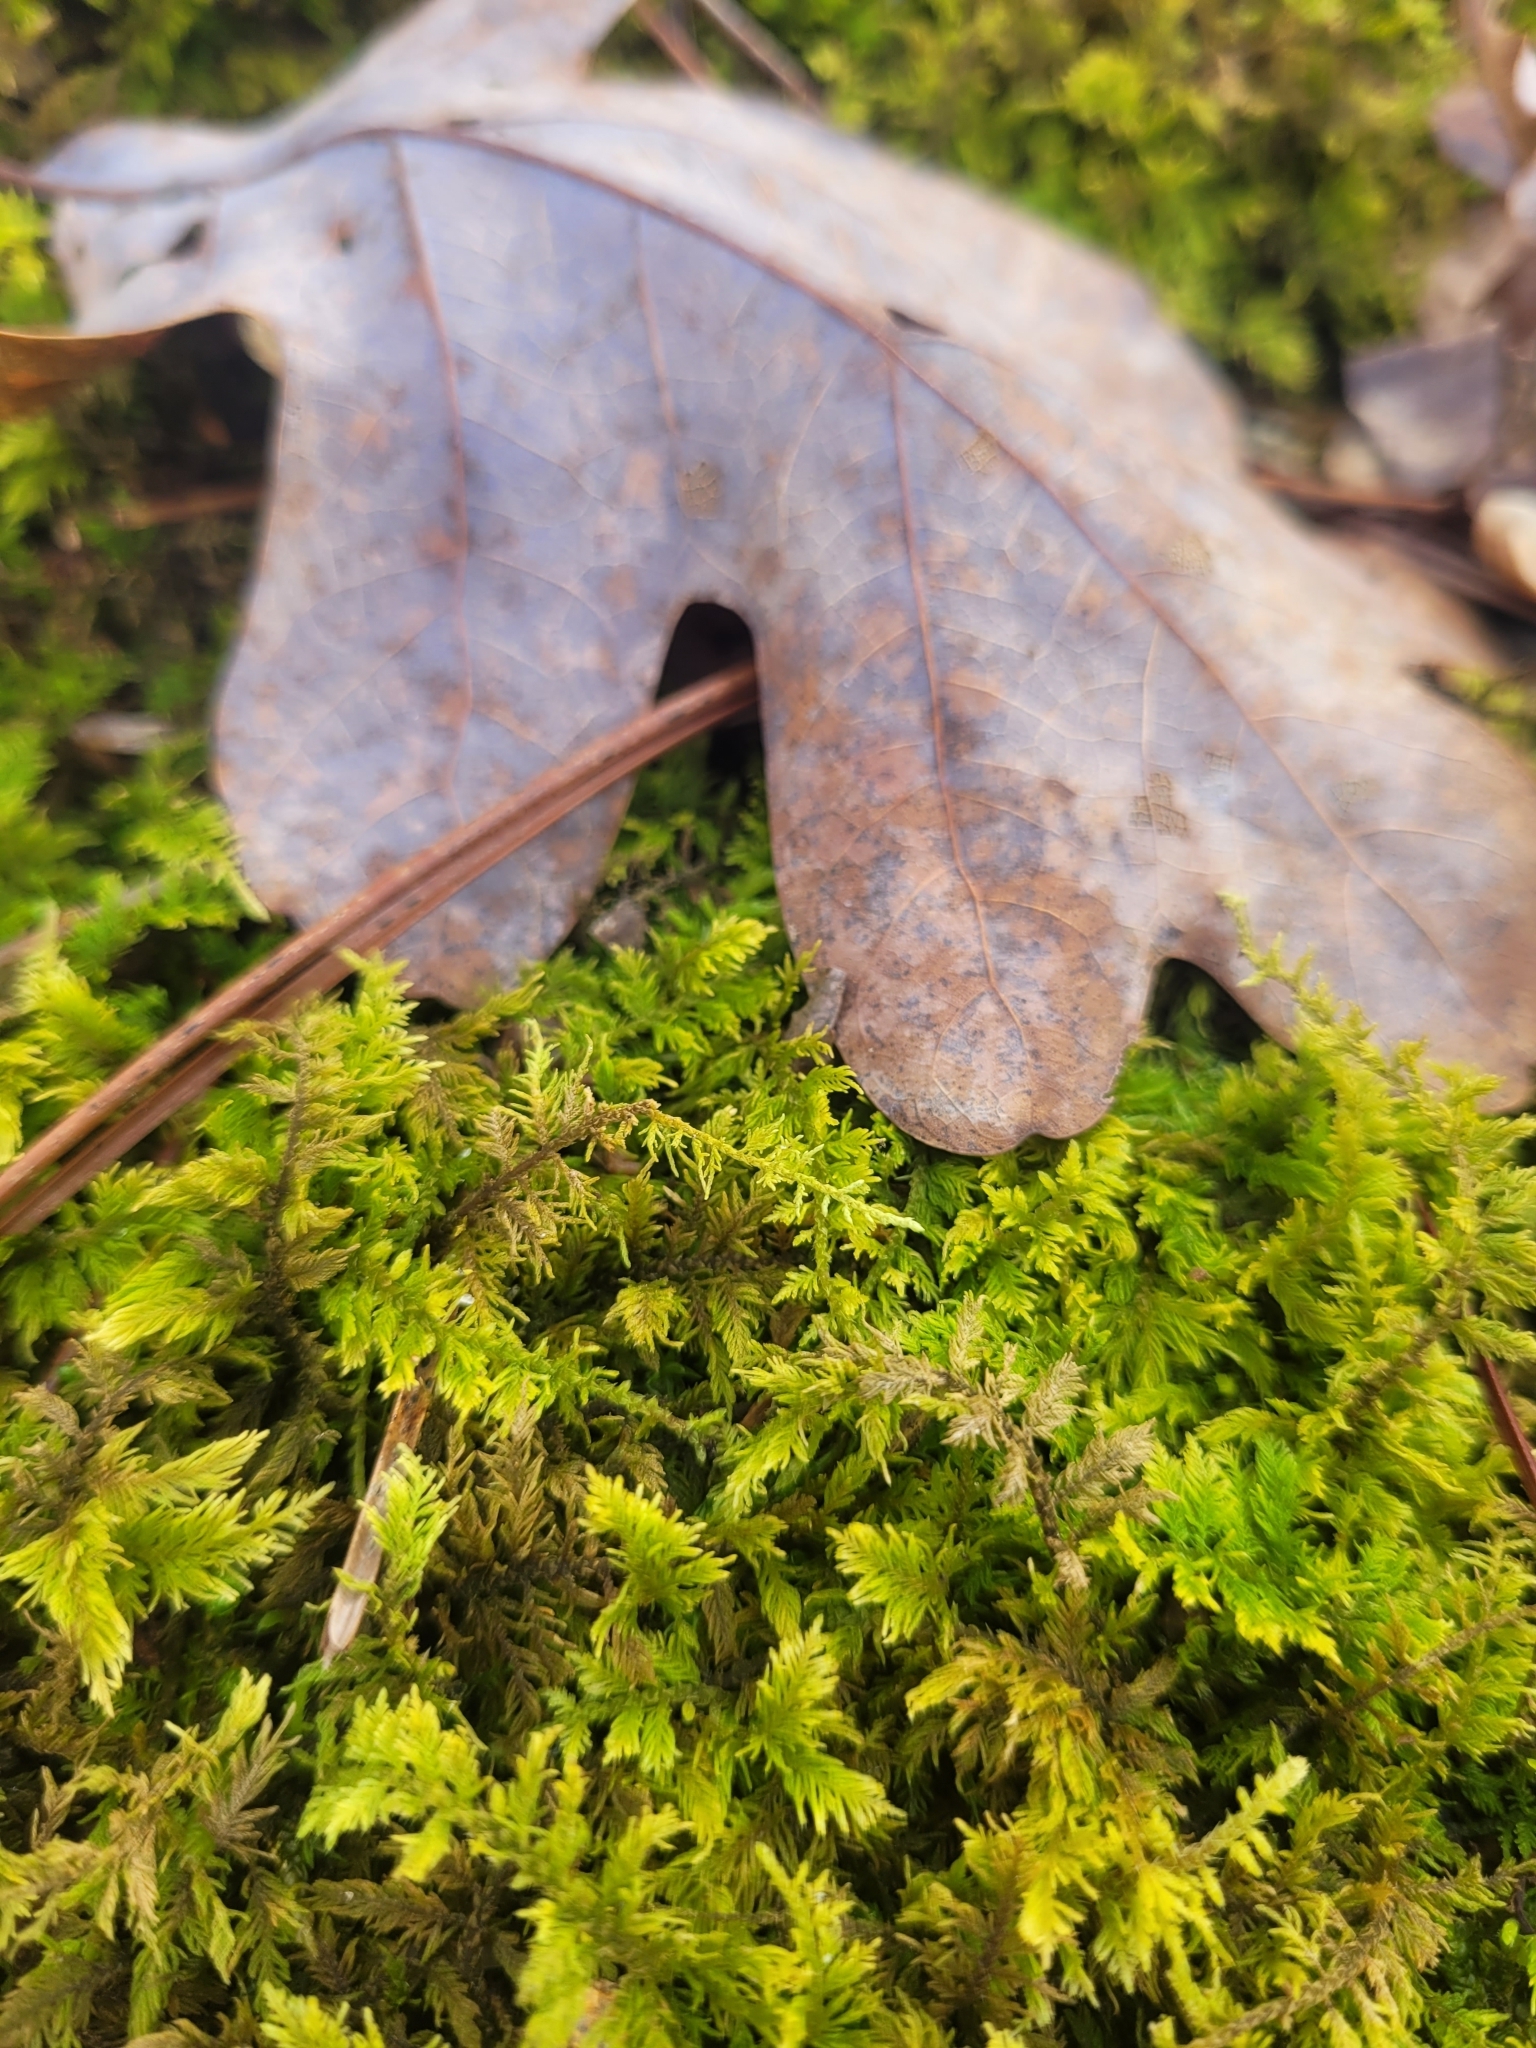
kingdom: Plantae
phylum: Bryophyta
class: Bryopsida
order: Hypnales
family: Thuidiaceae
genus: Thuidium
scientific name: Thuidium delicatulum
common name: Delicate fern moss
